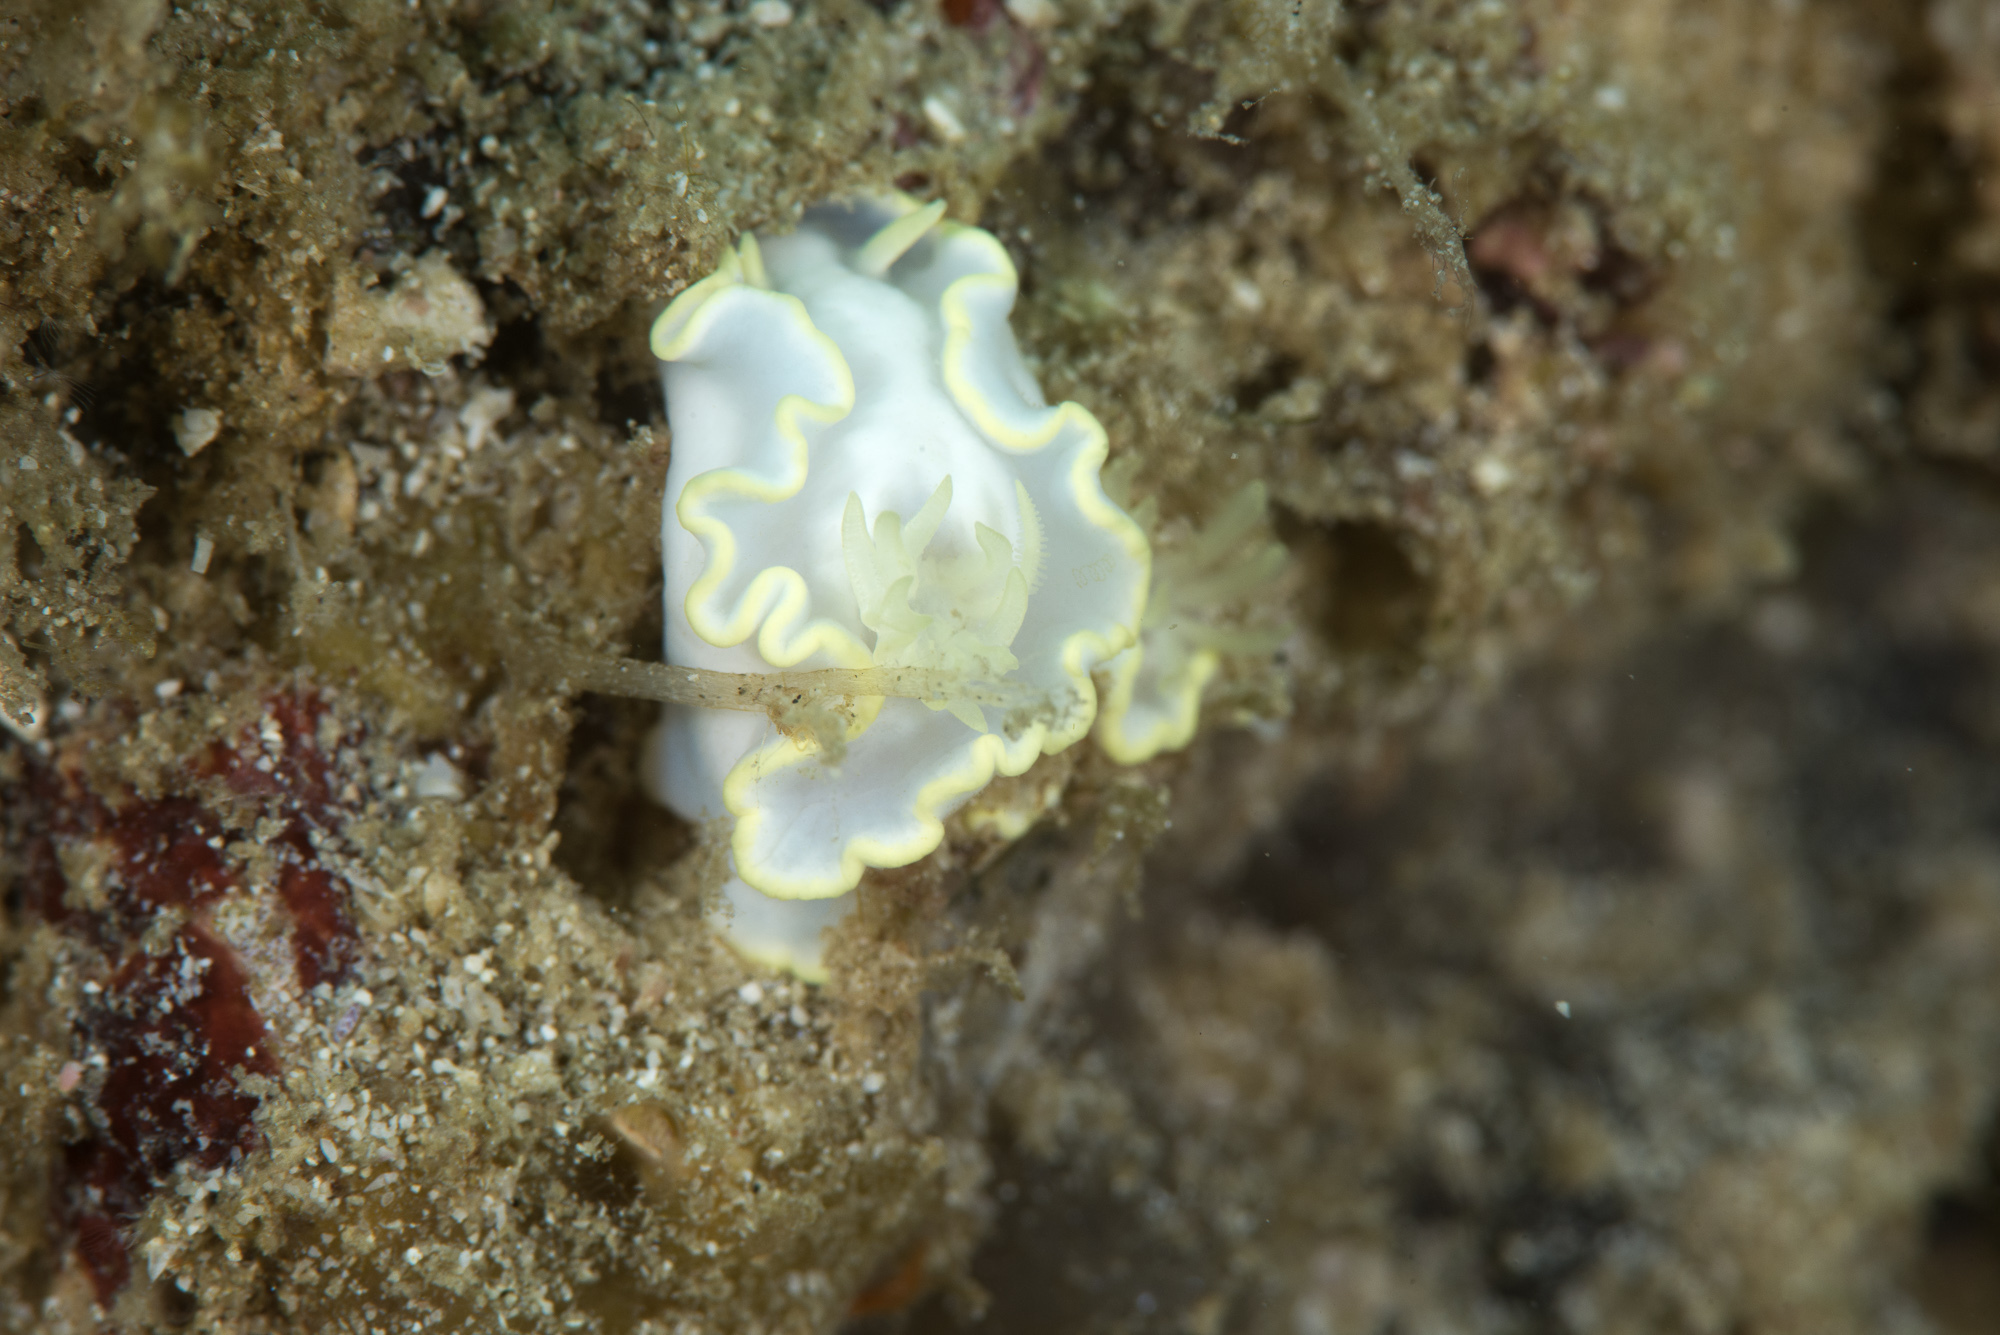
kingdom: Animalia
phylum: Mollusca
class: Gastropoda
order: Nudibranchia
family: Chromodorididae
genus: Glossodoris
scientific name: Glossodoris buko
